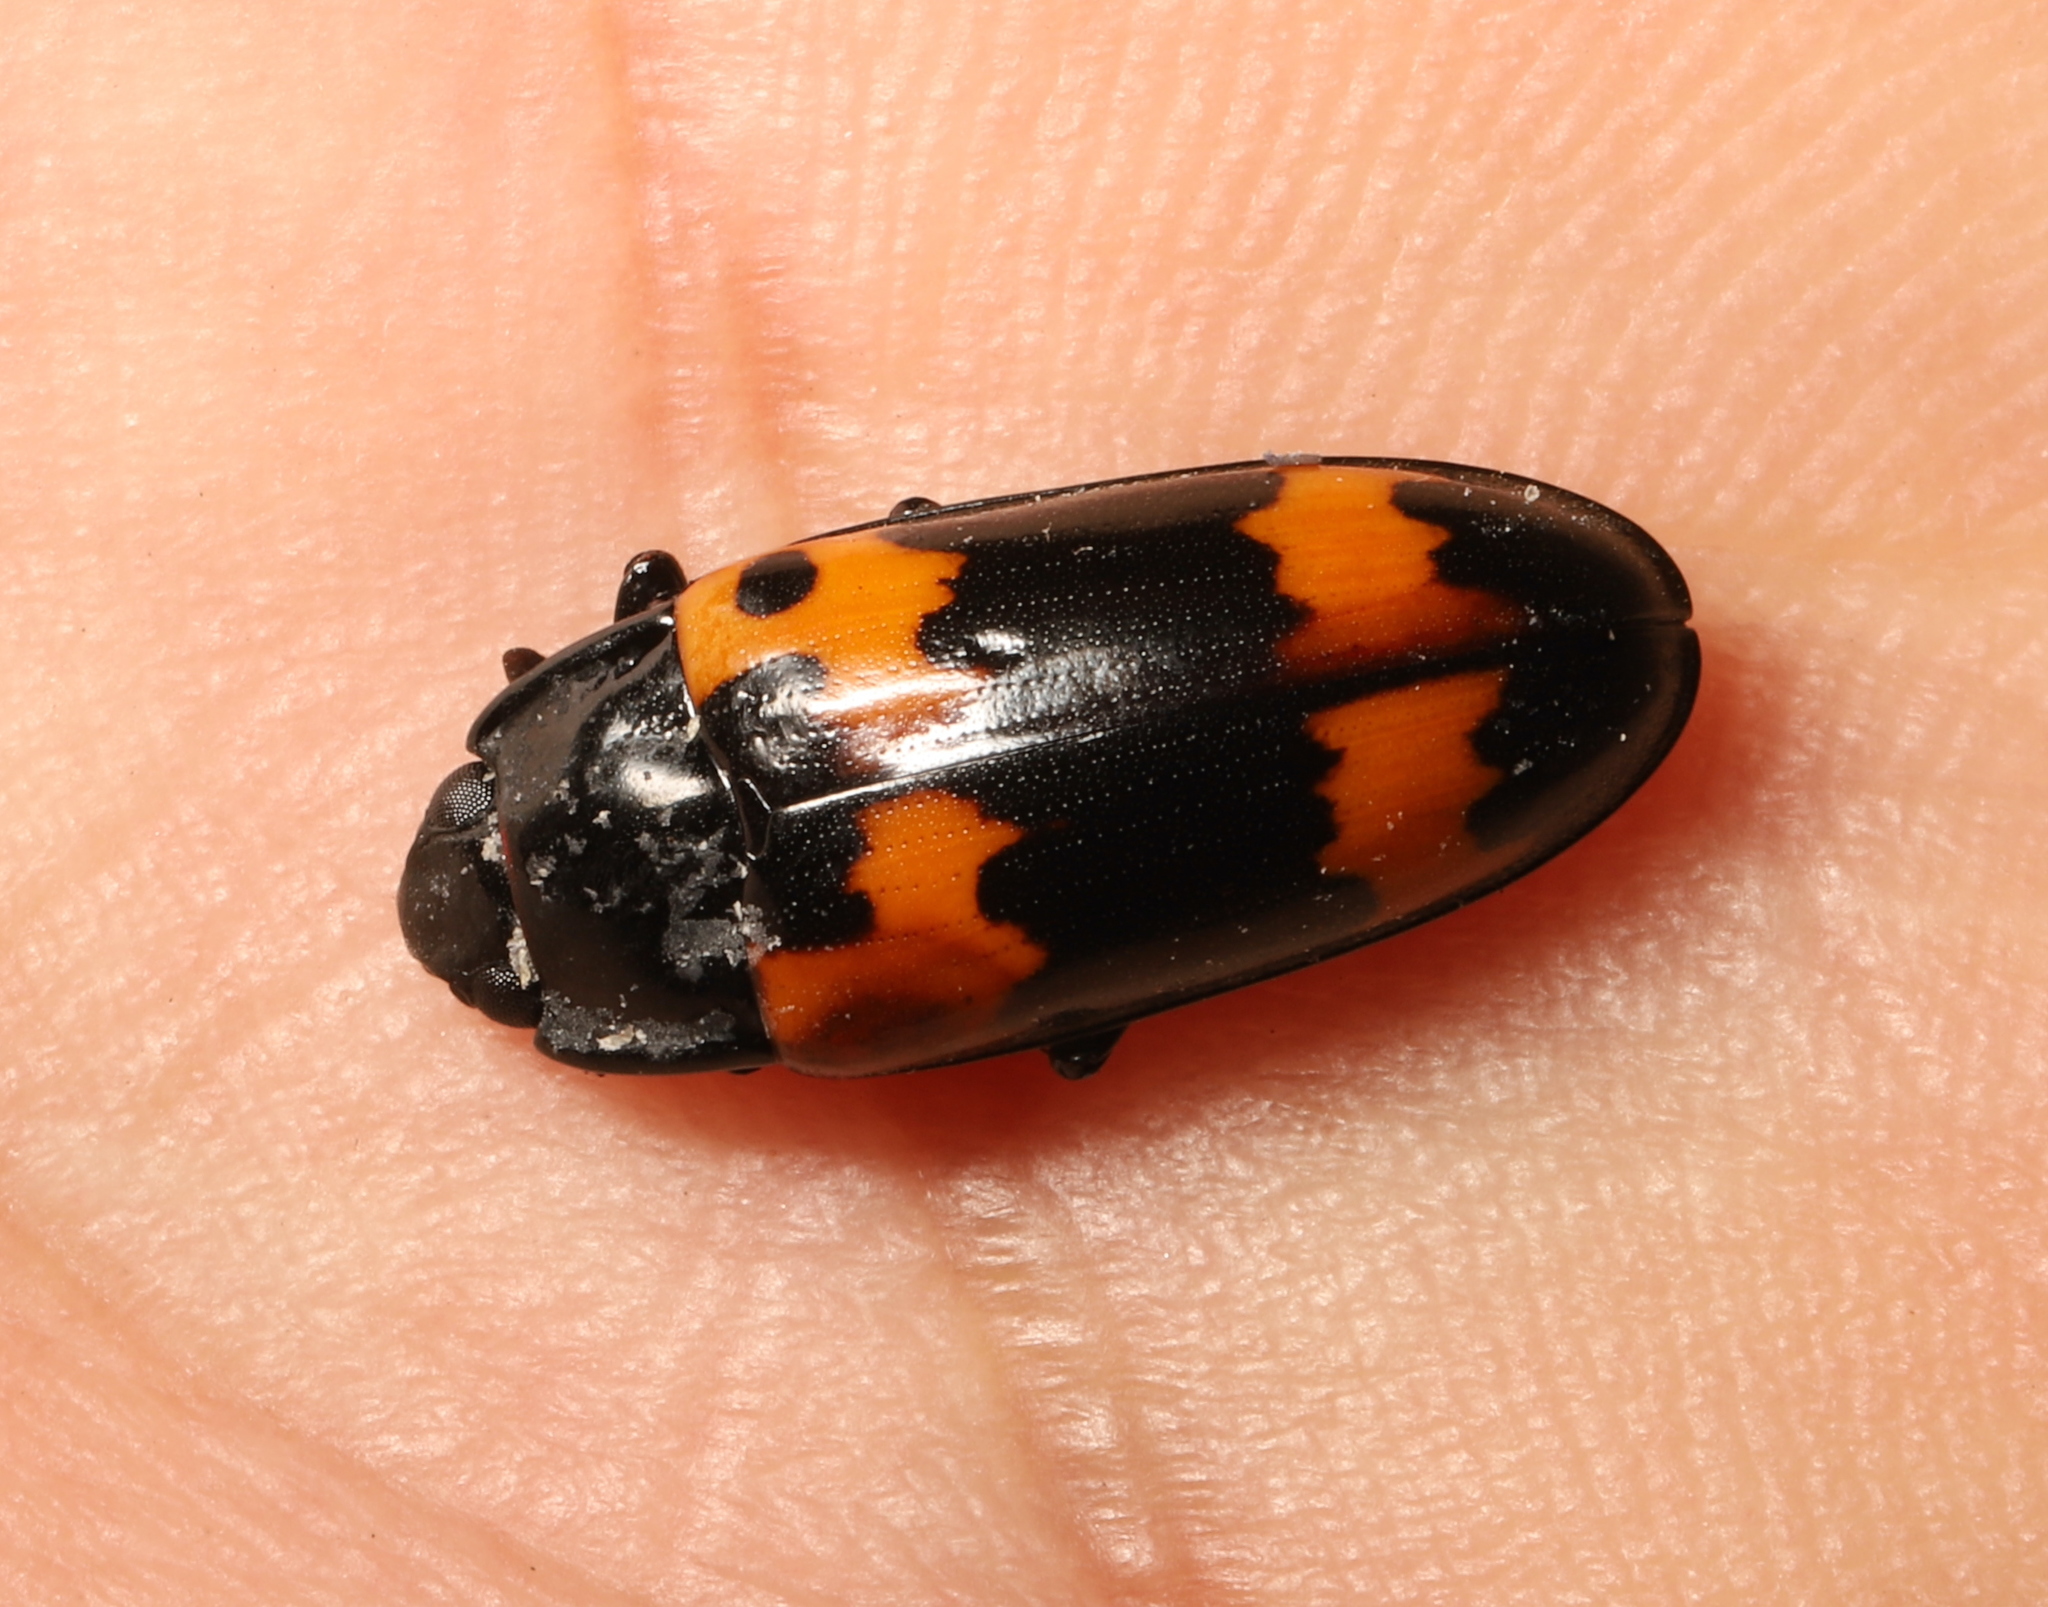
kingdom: Animalia
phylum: Arthropoda
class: Insecta
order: Coleoptera
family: Erotylidae
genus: Megalodacne
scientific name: Megalodacne fasciata
